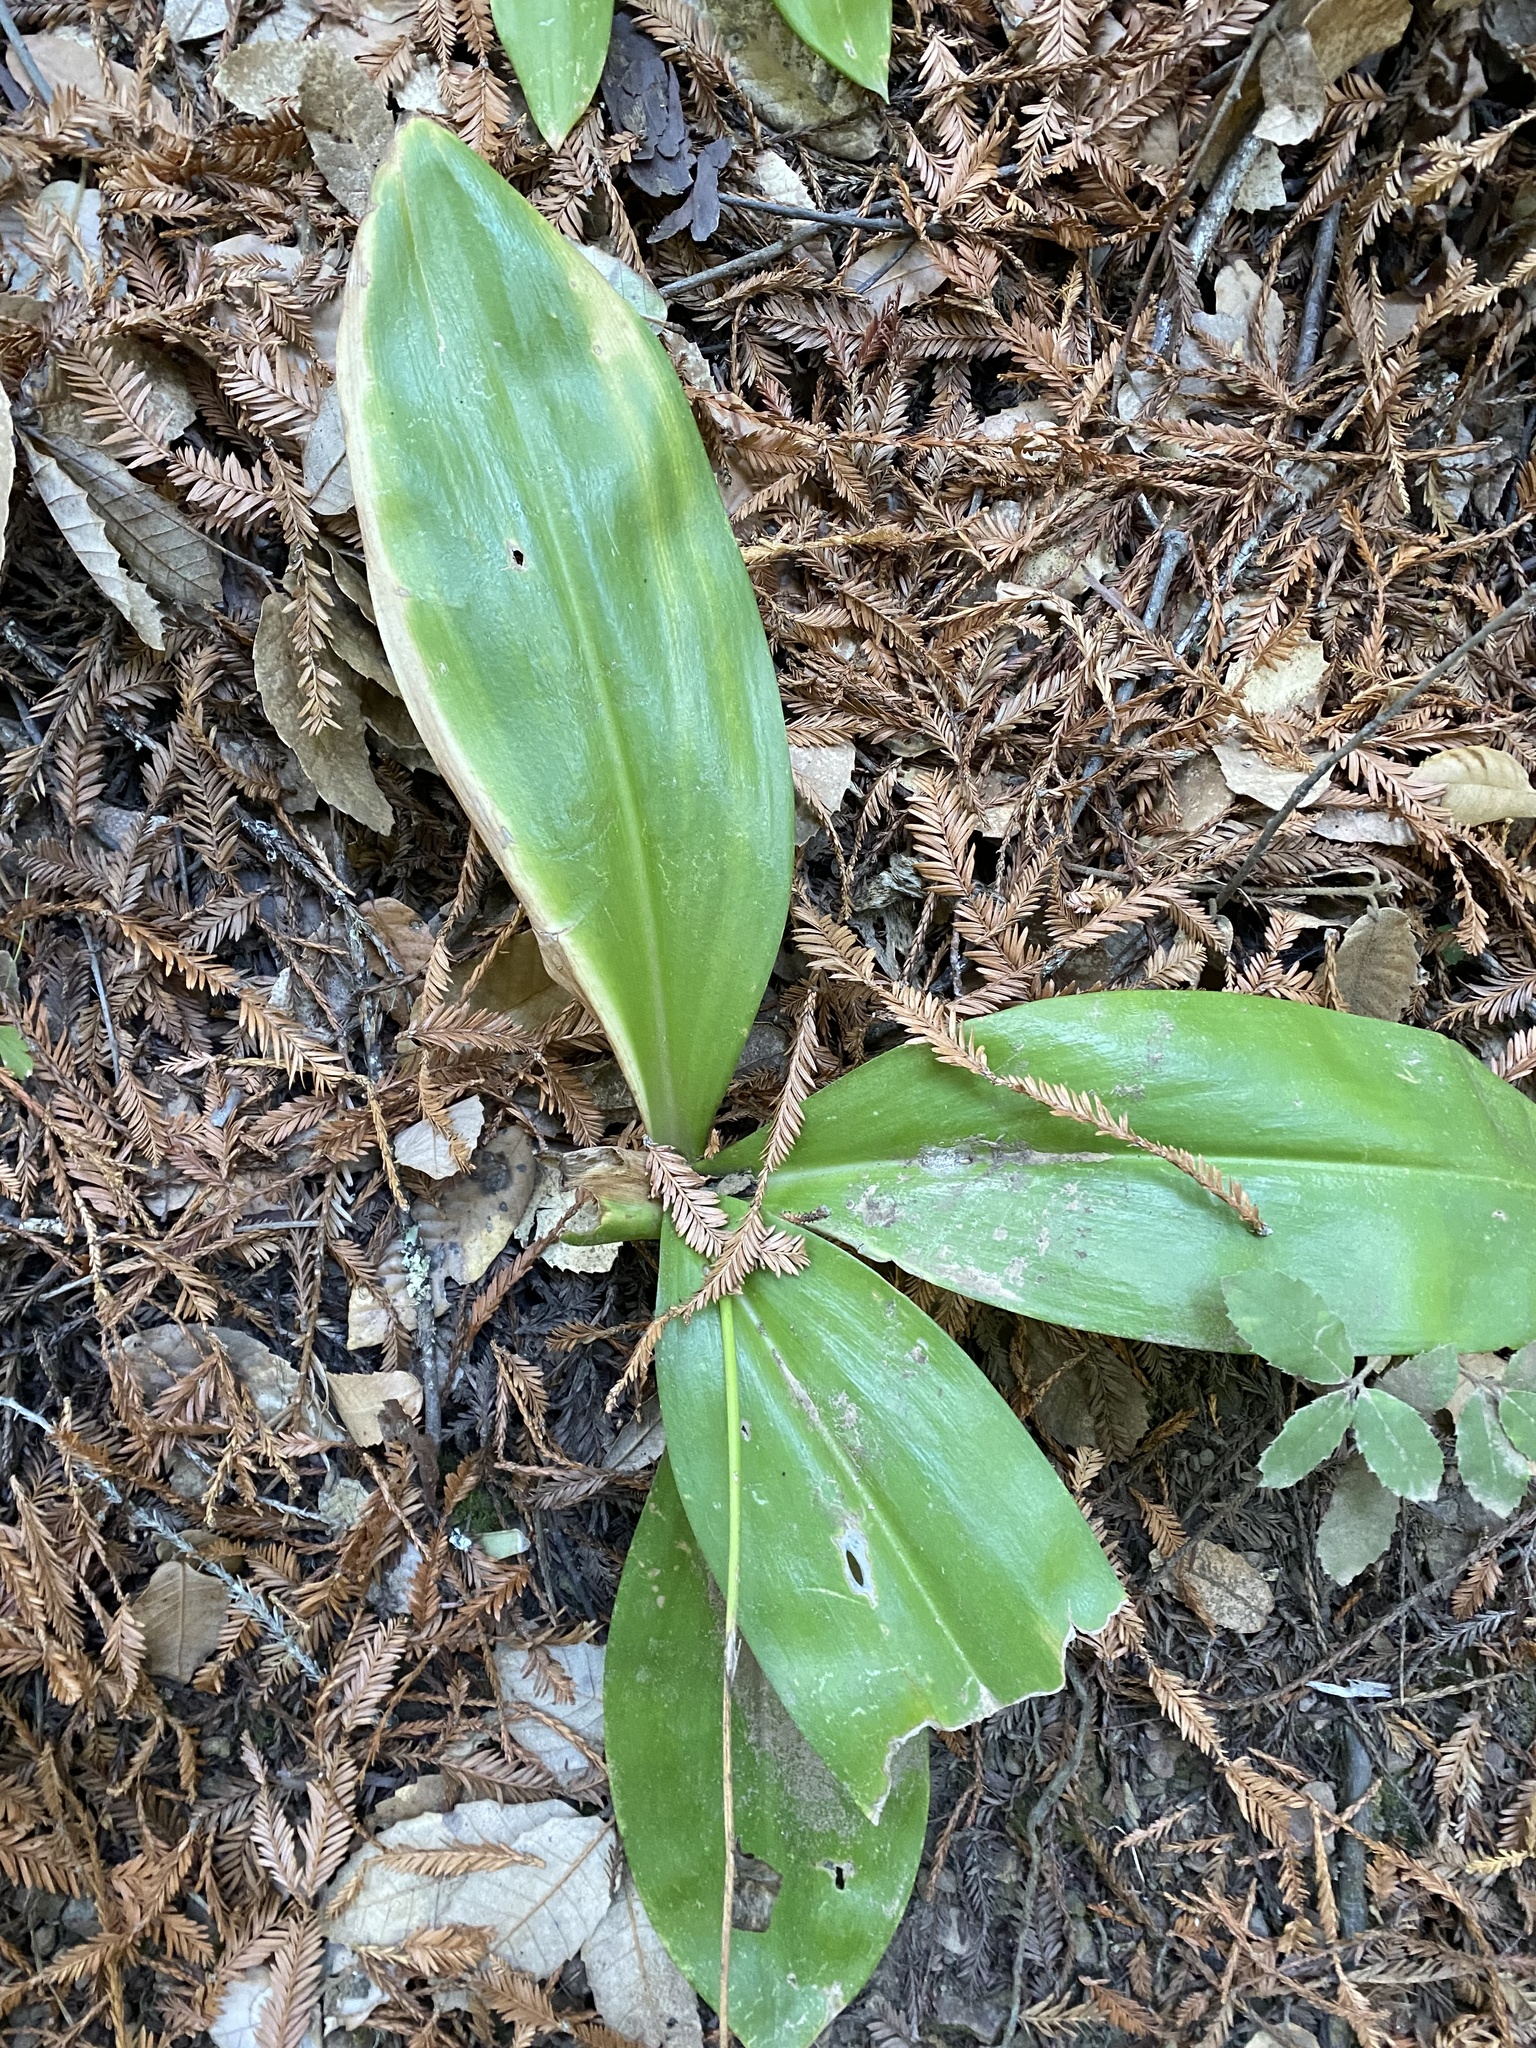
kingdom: Plantae
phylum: Tracheophyta
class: Liliopsida
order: Liliales
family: Liliaceae
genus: Clintonia
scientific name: Clintonia andrewsiana
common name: Red clintonia
